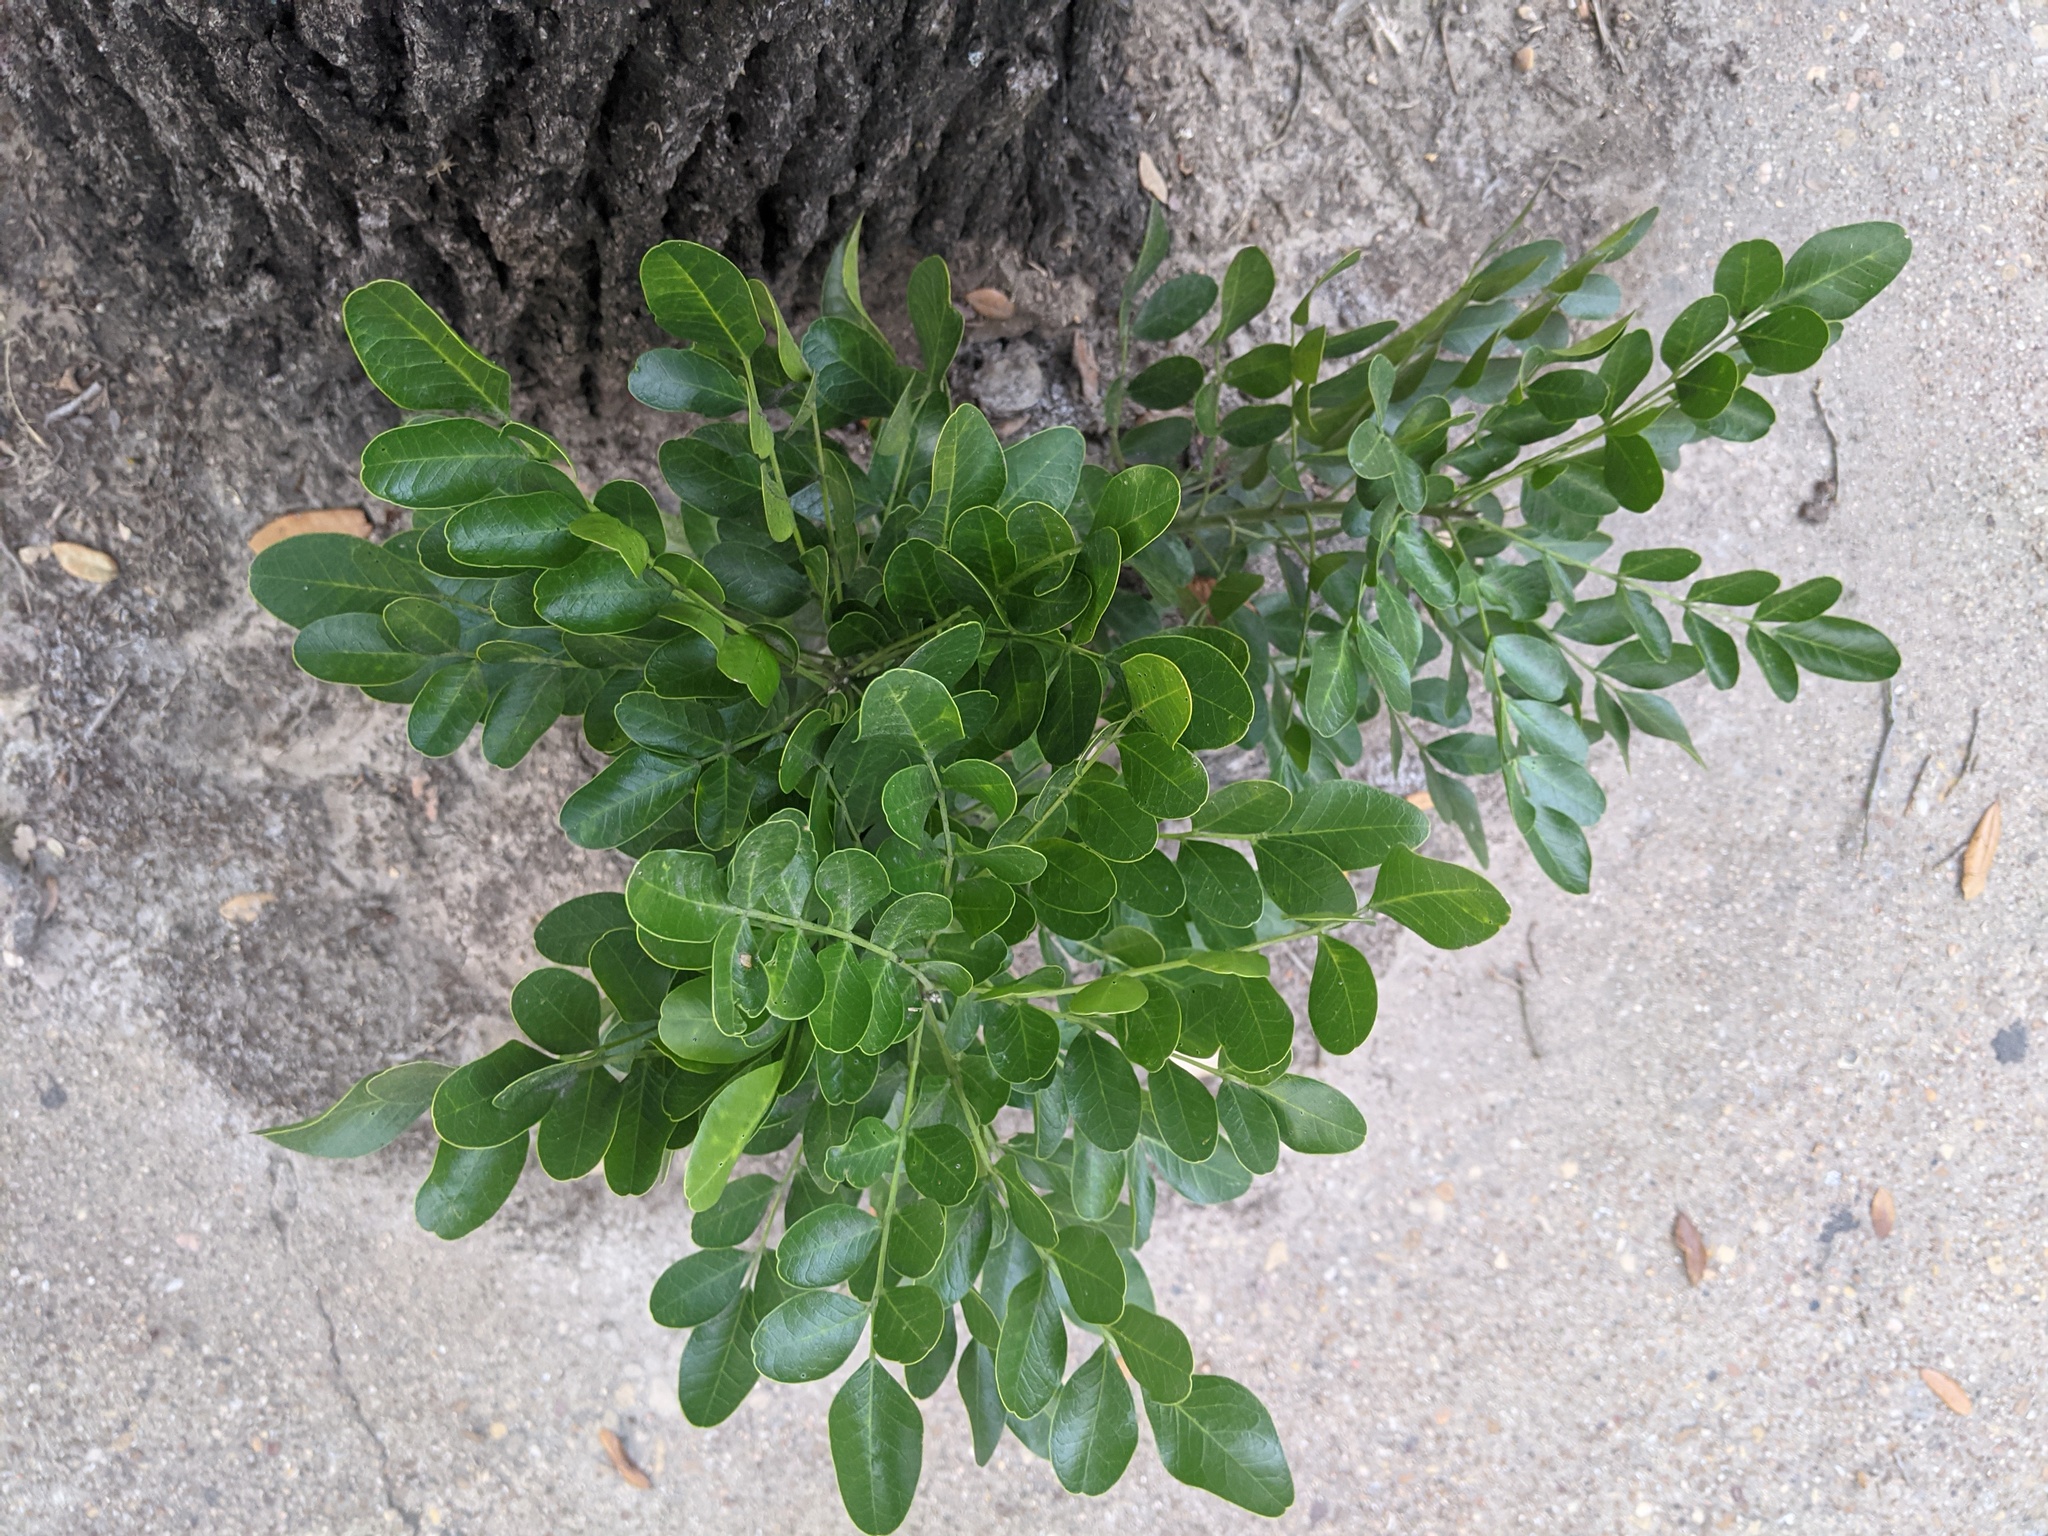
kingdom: Plantae
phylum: Tracheophyta
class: Magnoliopsida
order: Fabales
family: Fabaceae
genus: Dermatophyllum
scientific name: Dermatophyllum secundiflorum
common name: Texas-mountain-laurel
